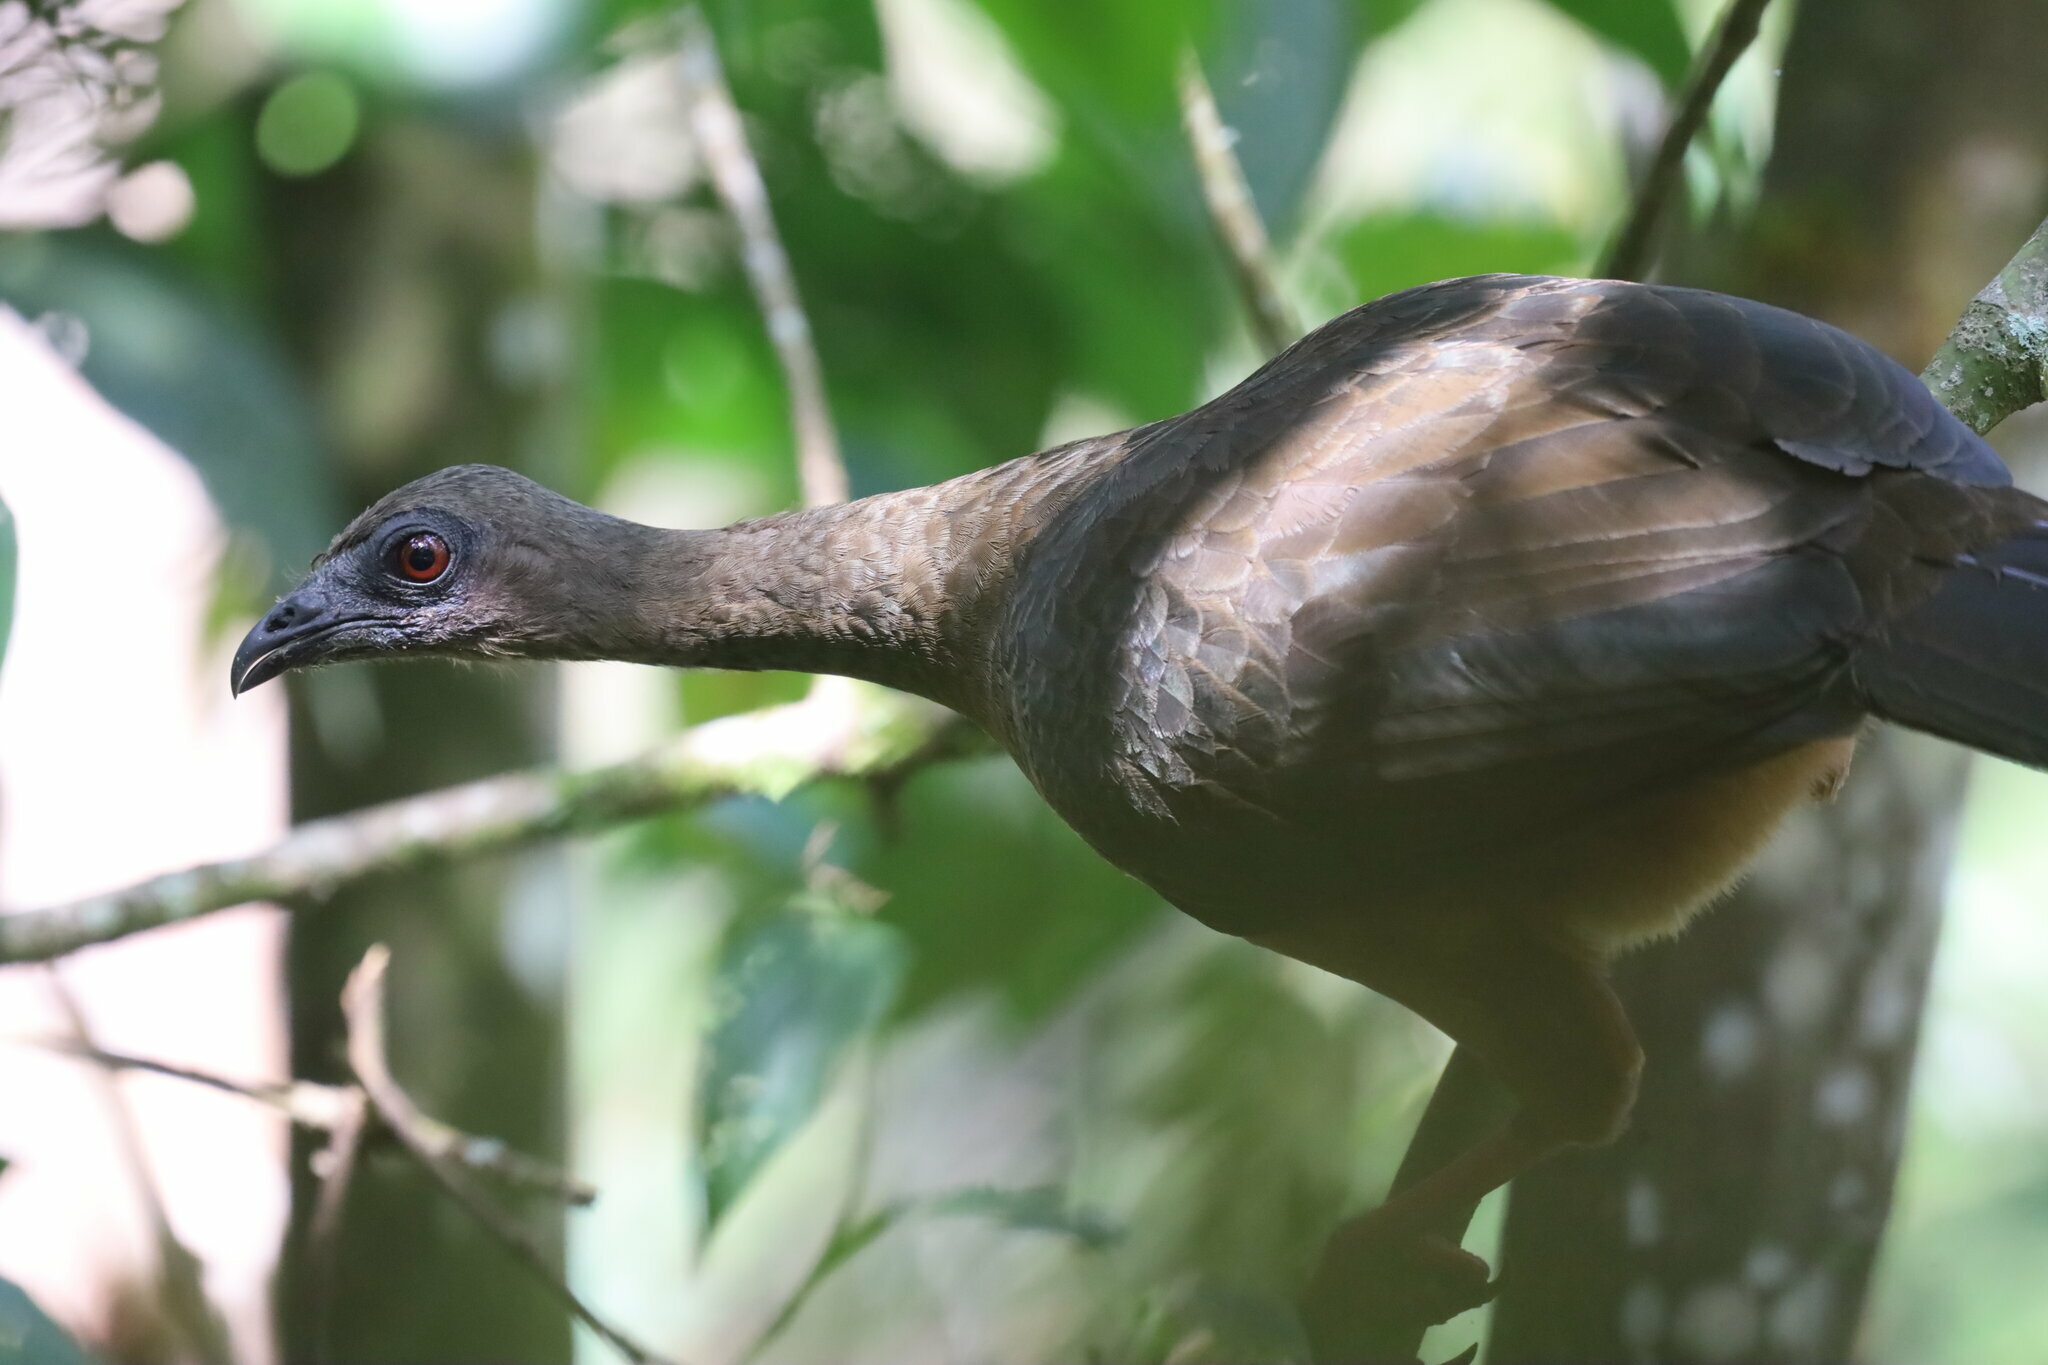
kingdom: Animalia
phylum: Chordata
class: Aves
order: Galliformes
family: Cracidae
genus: Chamaepetes
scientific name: Chamaepetes goudotii
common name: Sickle-winged guan
